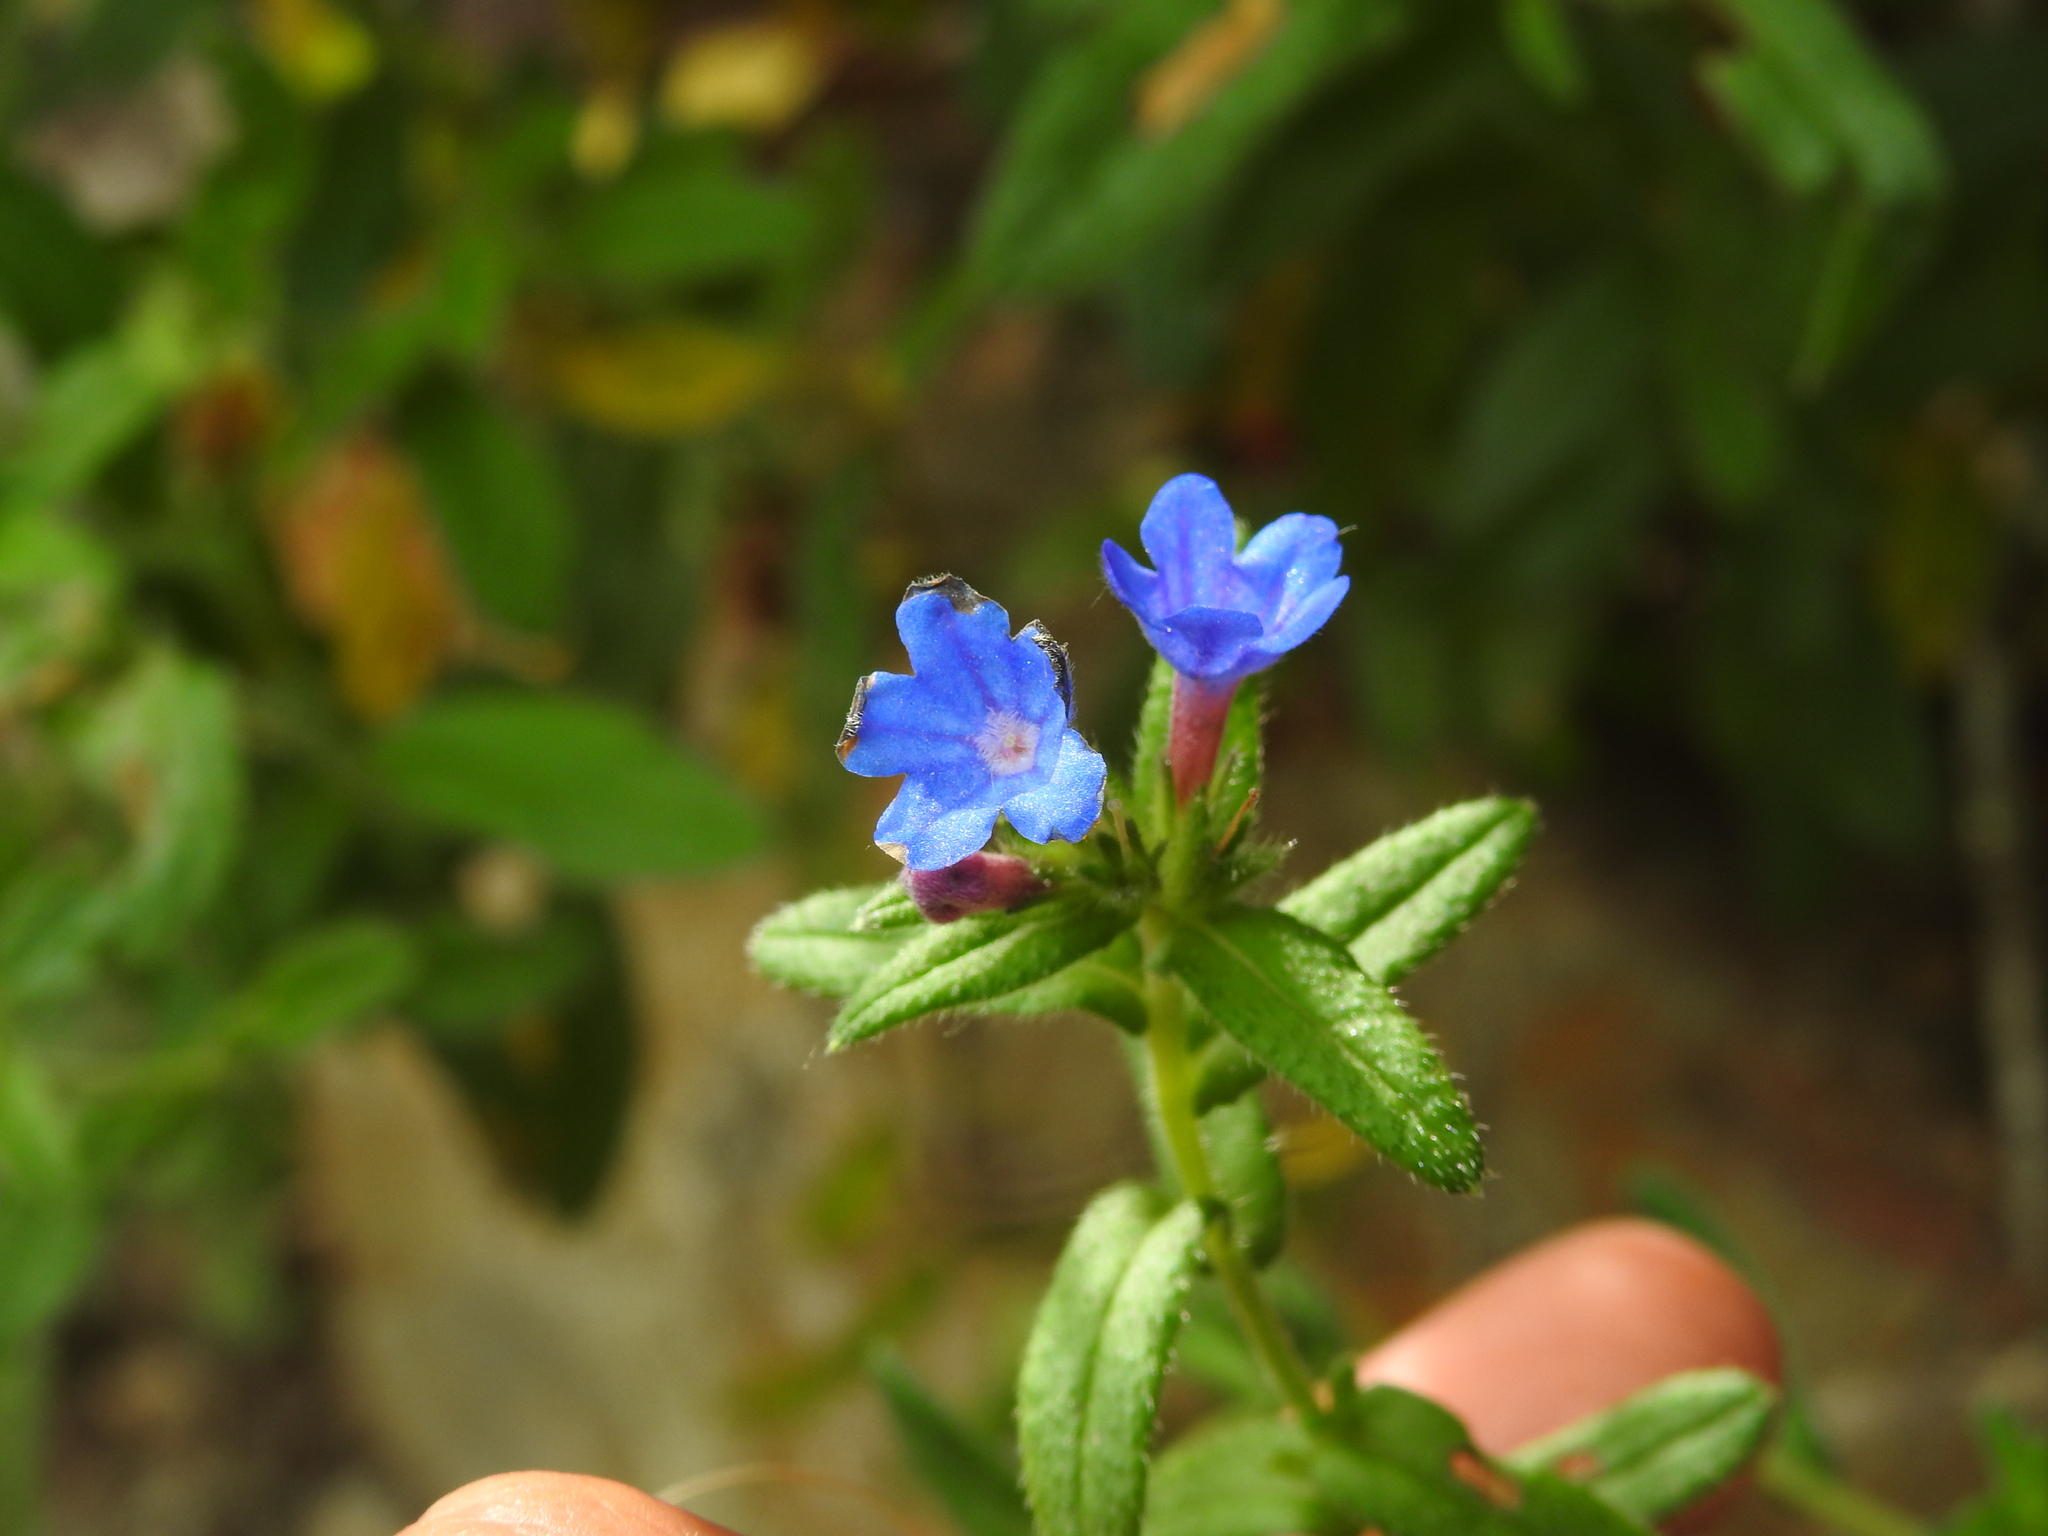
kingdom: Plantae
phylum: Tracheophyta
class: Magnoliopsida
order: Boraginales
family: Boraginaceae
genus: Glandora
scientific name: Glandora prostrata
